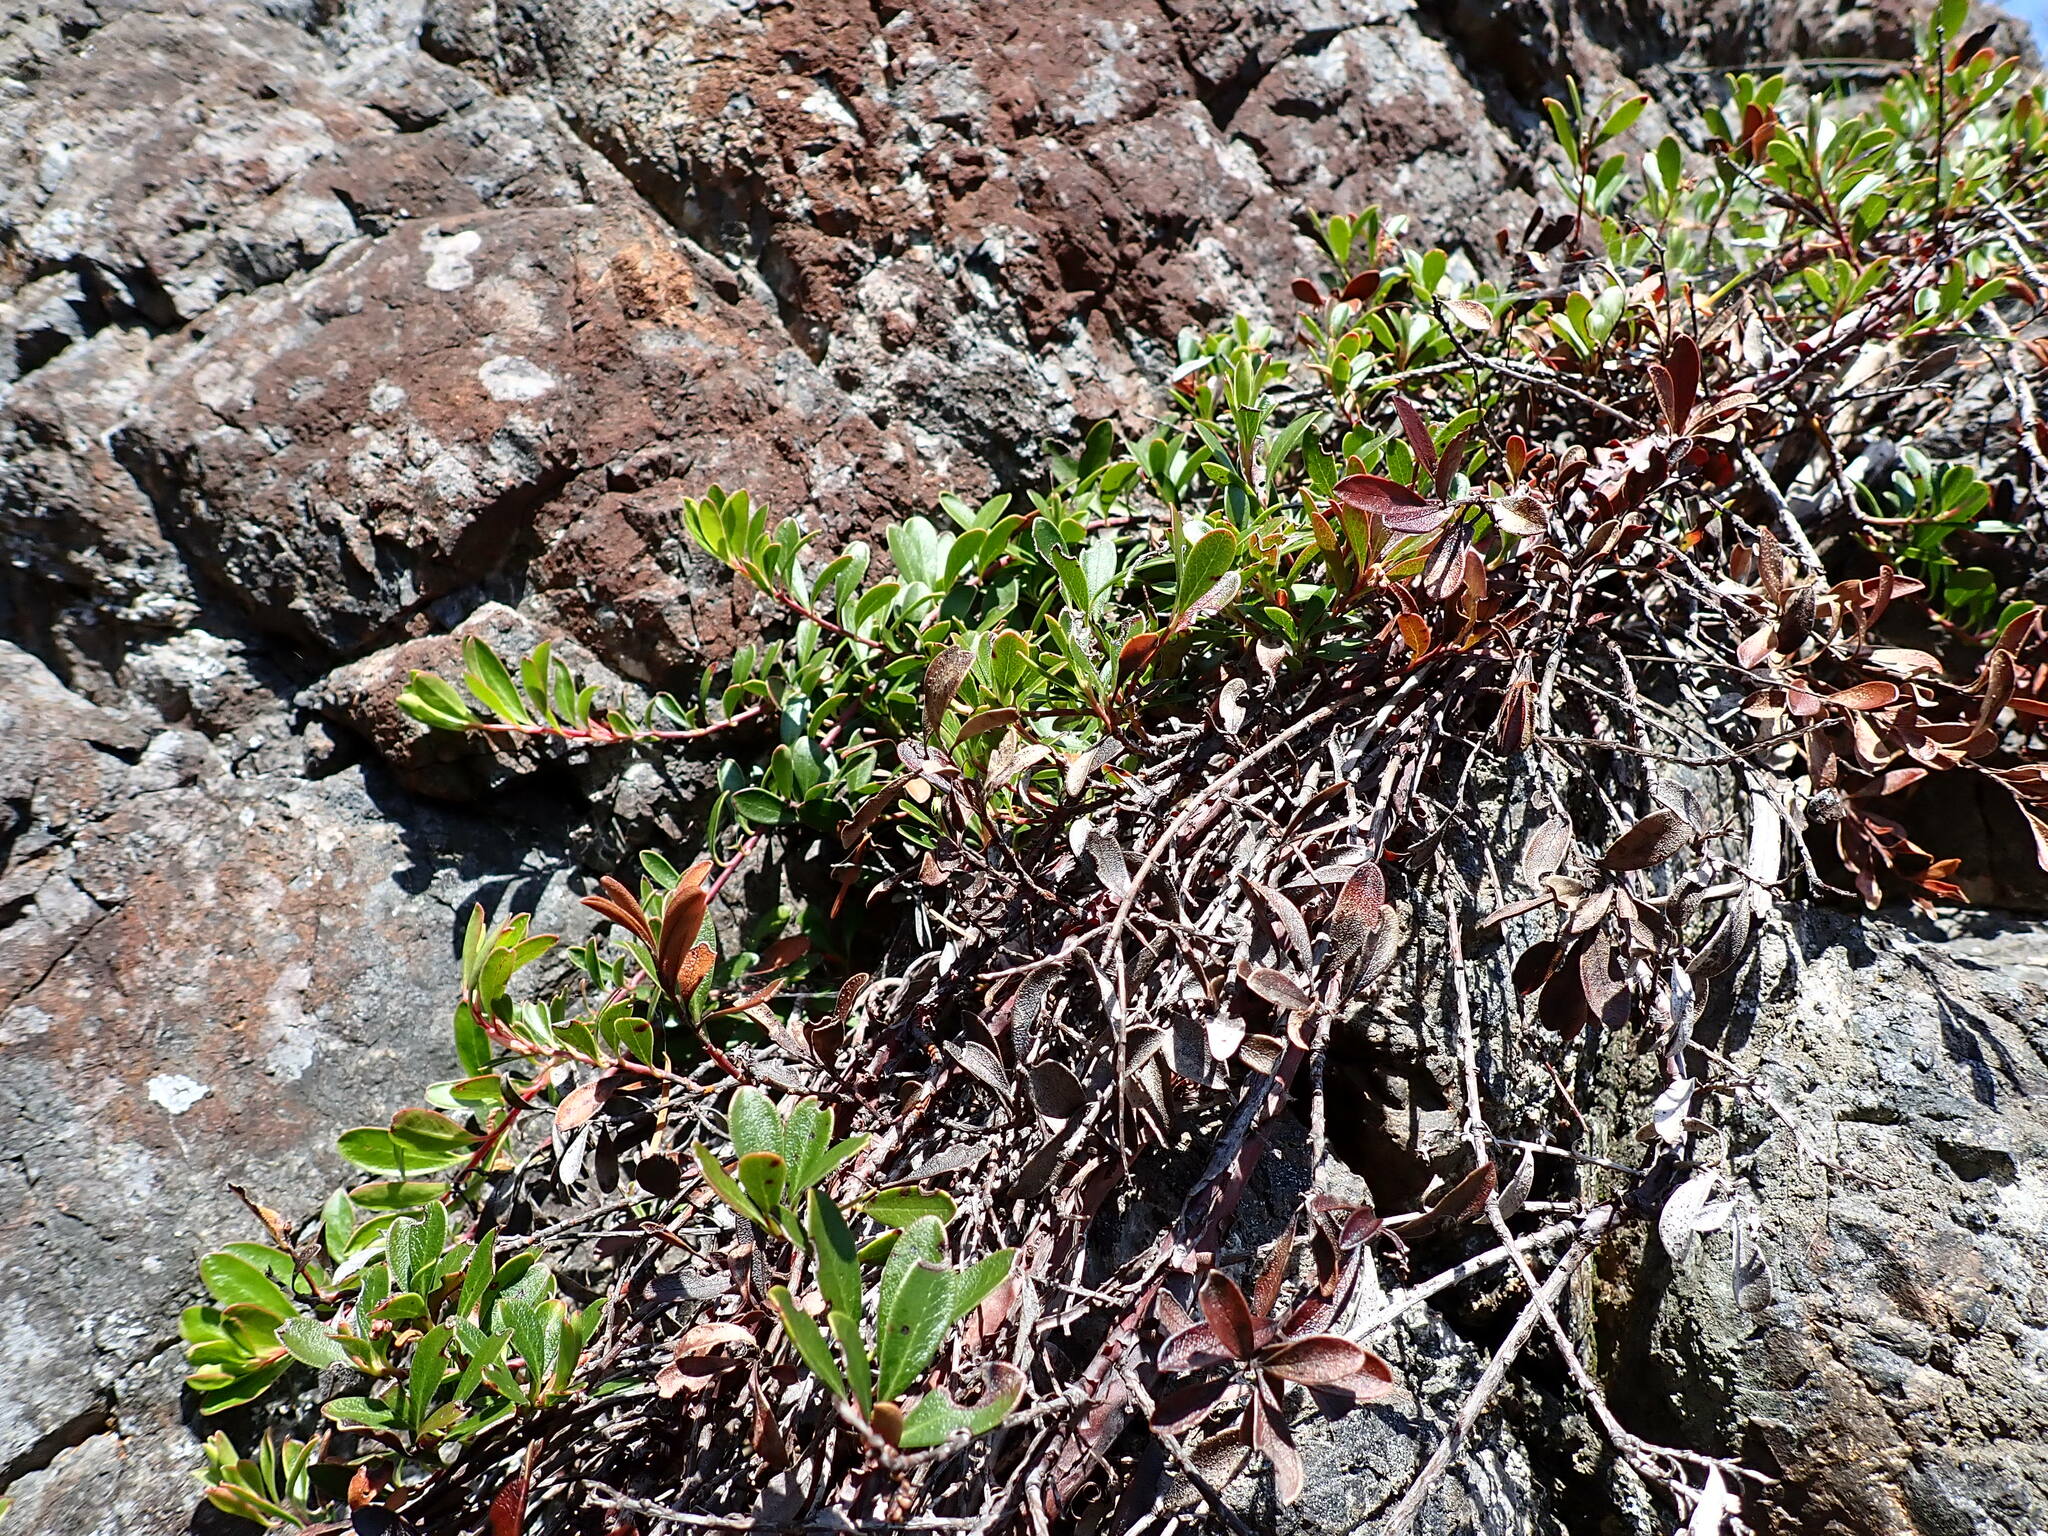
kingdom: Plantae
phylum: Tracheophyta
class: Magnoliopsida
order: Ericales
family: Ericaceae
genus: Arctostaphylos
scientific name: Arctostaphylos uva-ursi
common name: Bearberry
